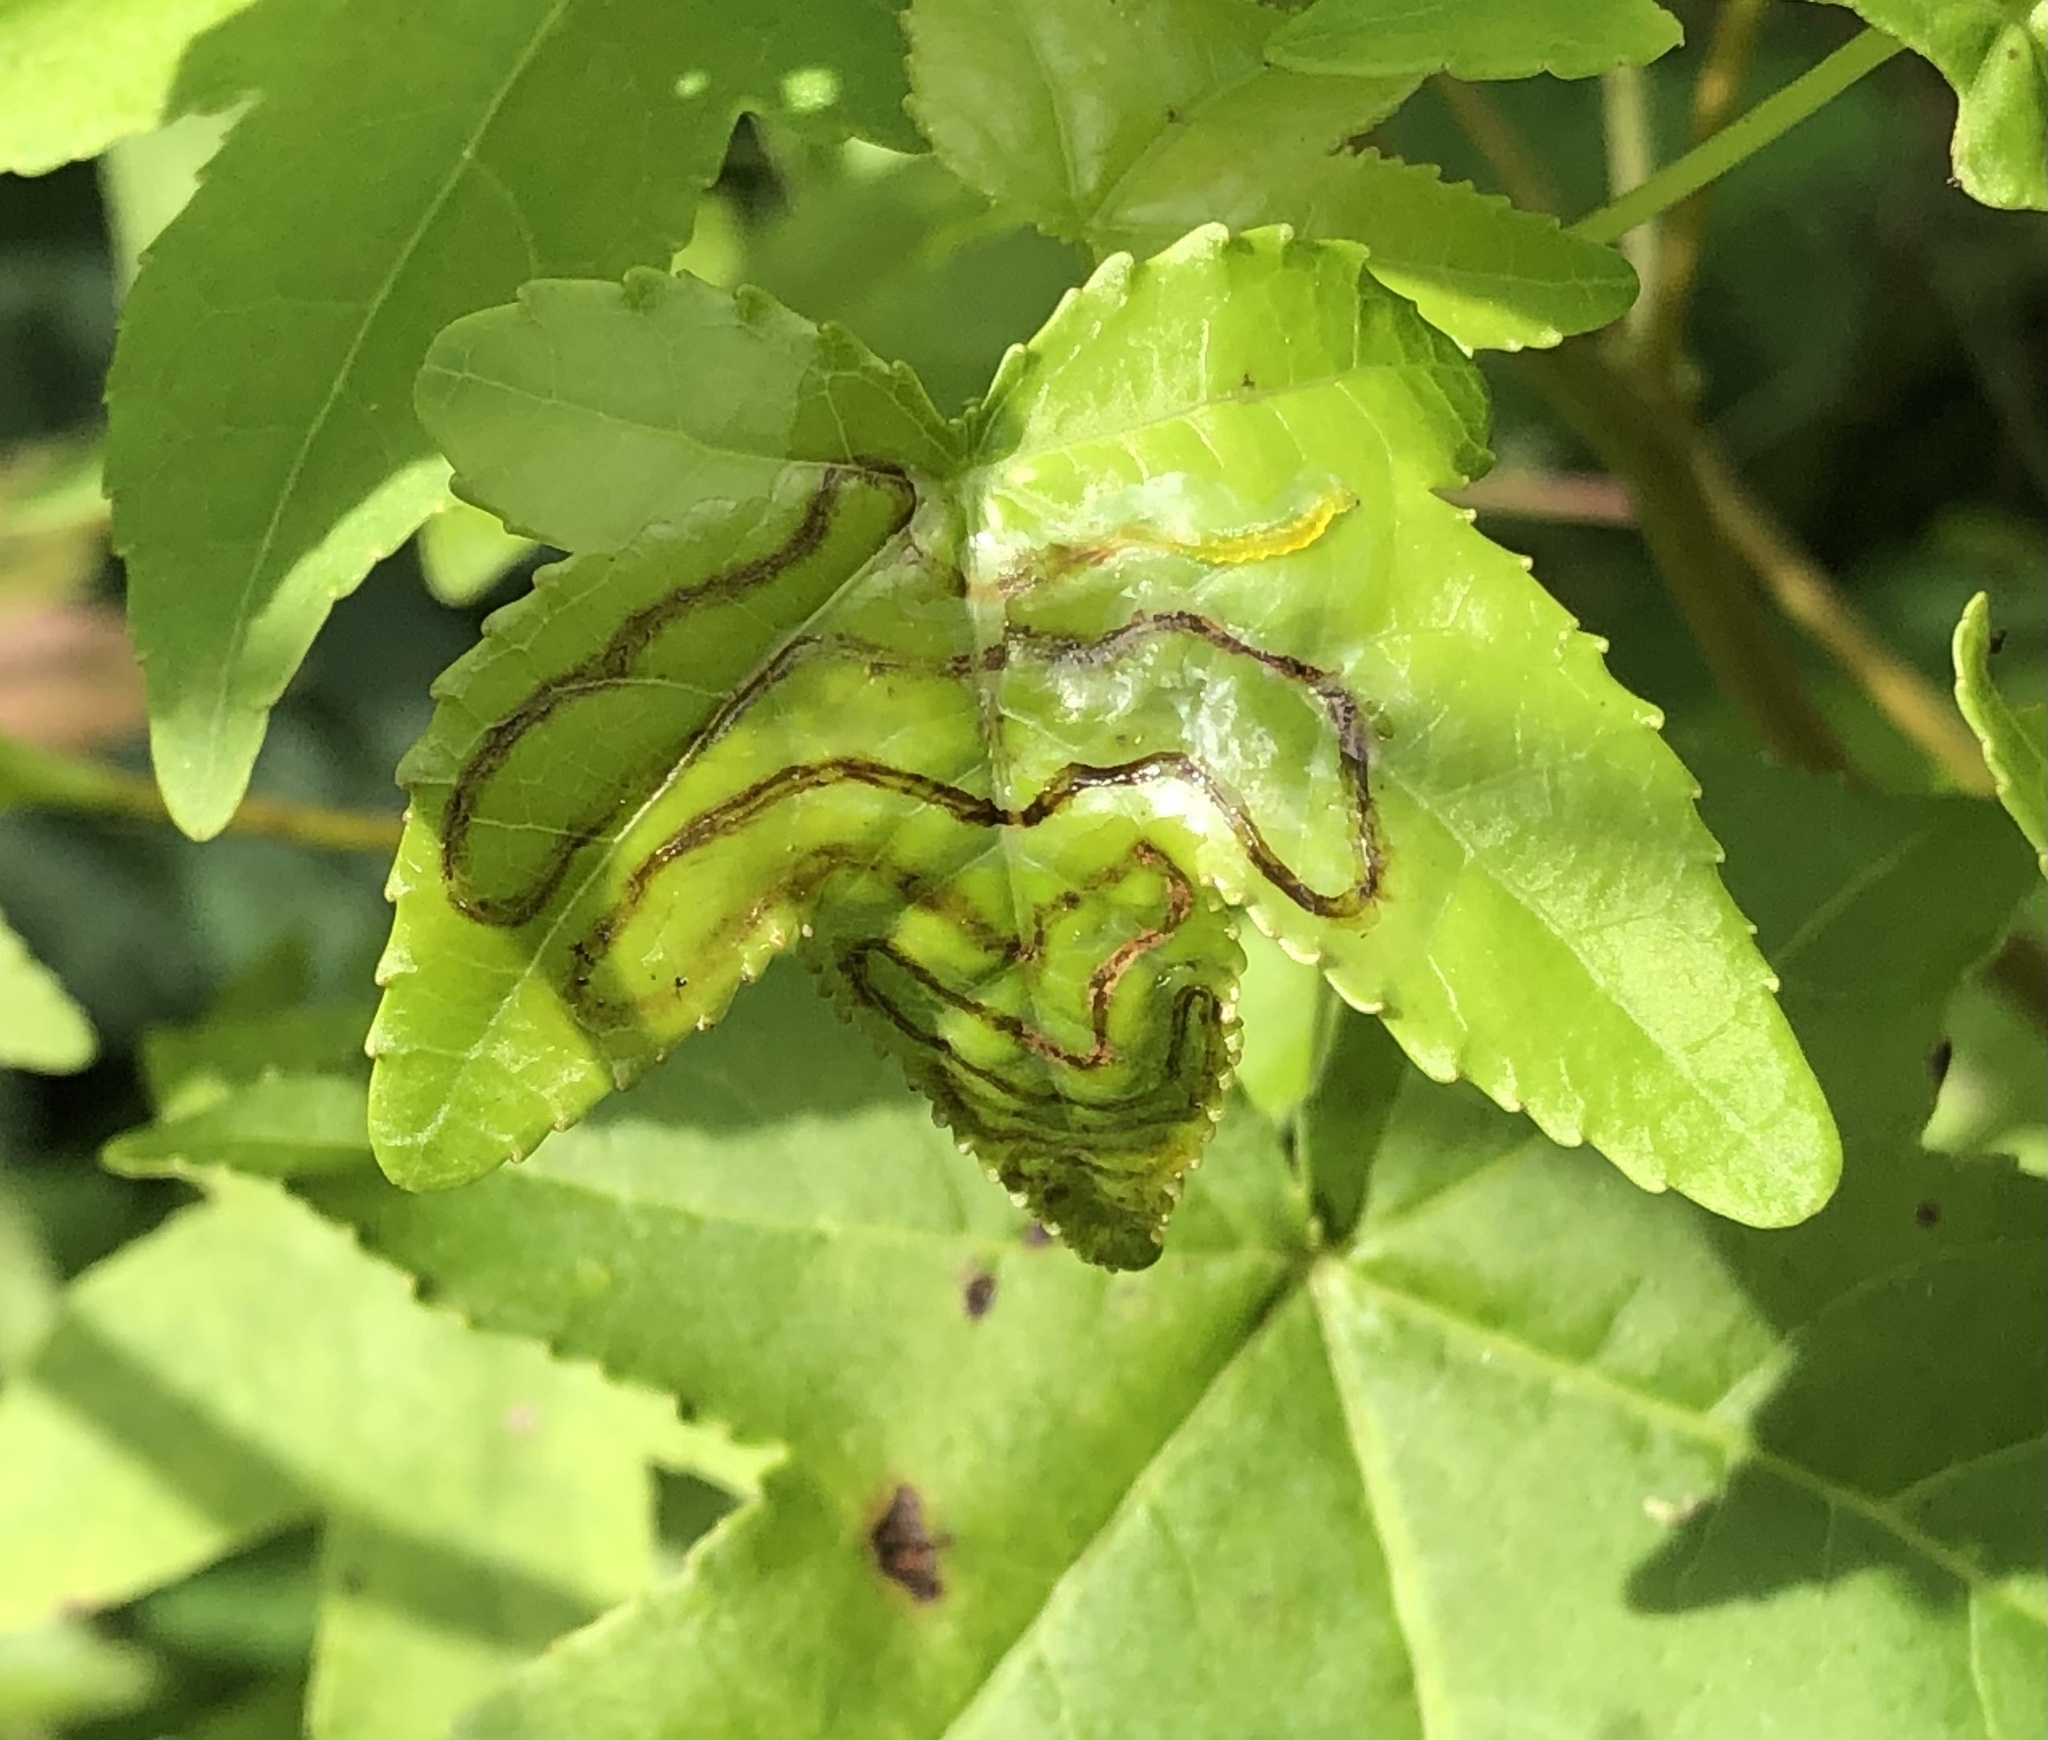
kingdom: Animalia
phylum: Arthropoda
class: Insecta
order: Lepidoptera
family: Gracillariidae
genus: Phyllocnistis
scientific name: Phyllocnistis liquidambarisella
